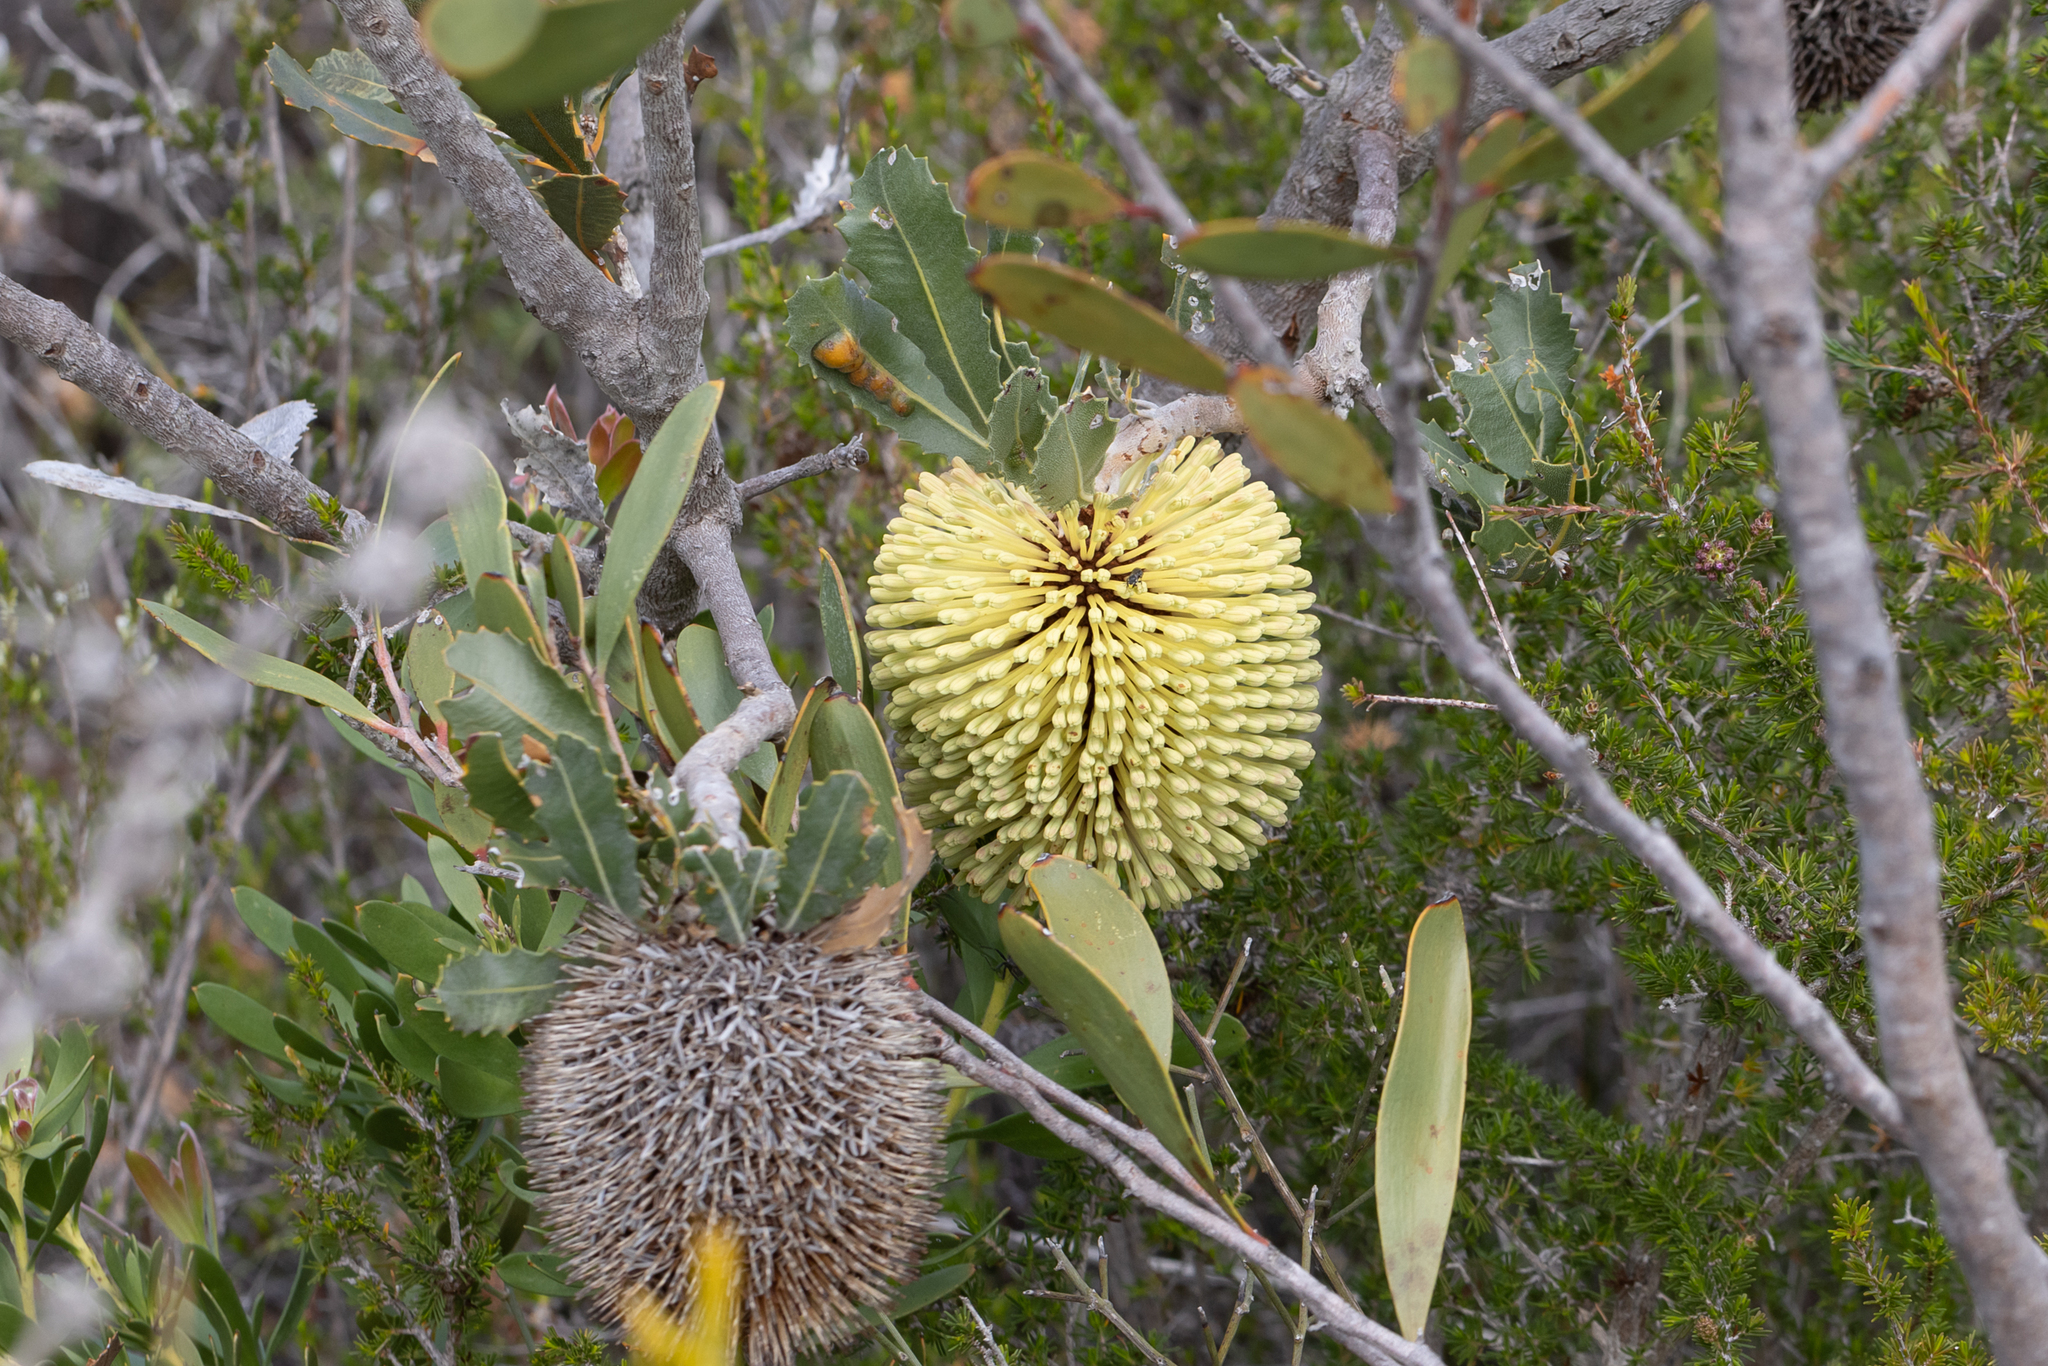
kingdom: Plantae
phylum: Tracheophyta
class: Magnoliopsida
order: Proteales
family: Proteaceae
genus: Banksia
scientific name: Banksia lemanniana
